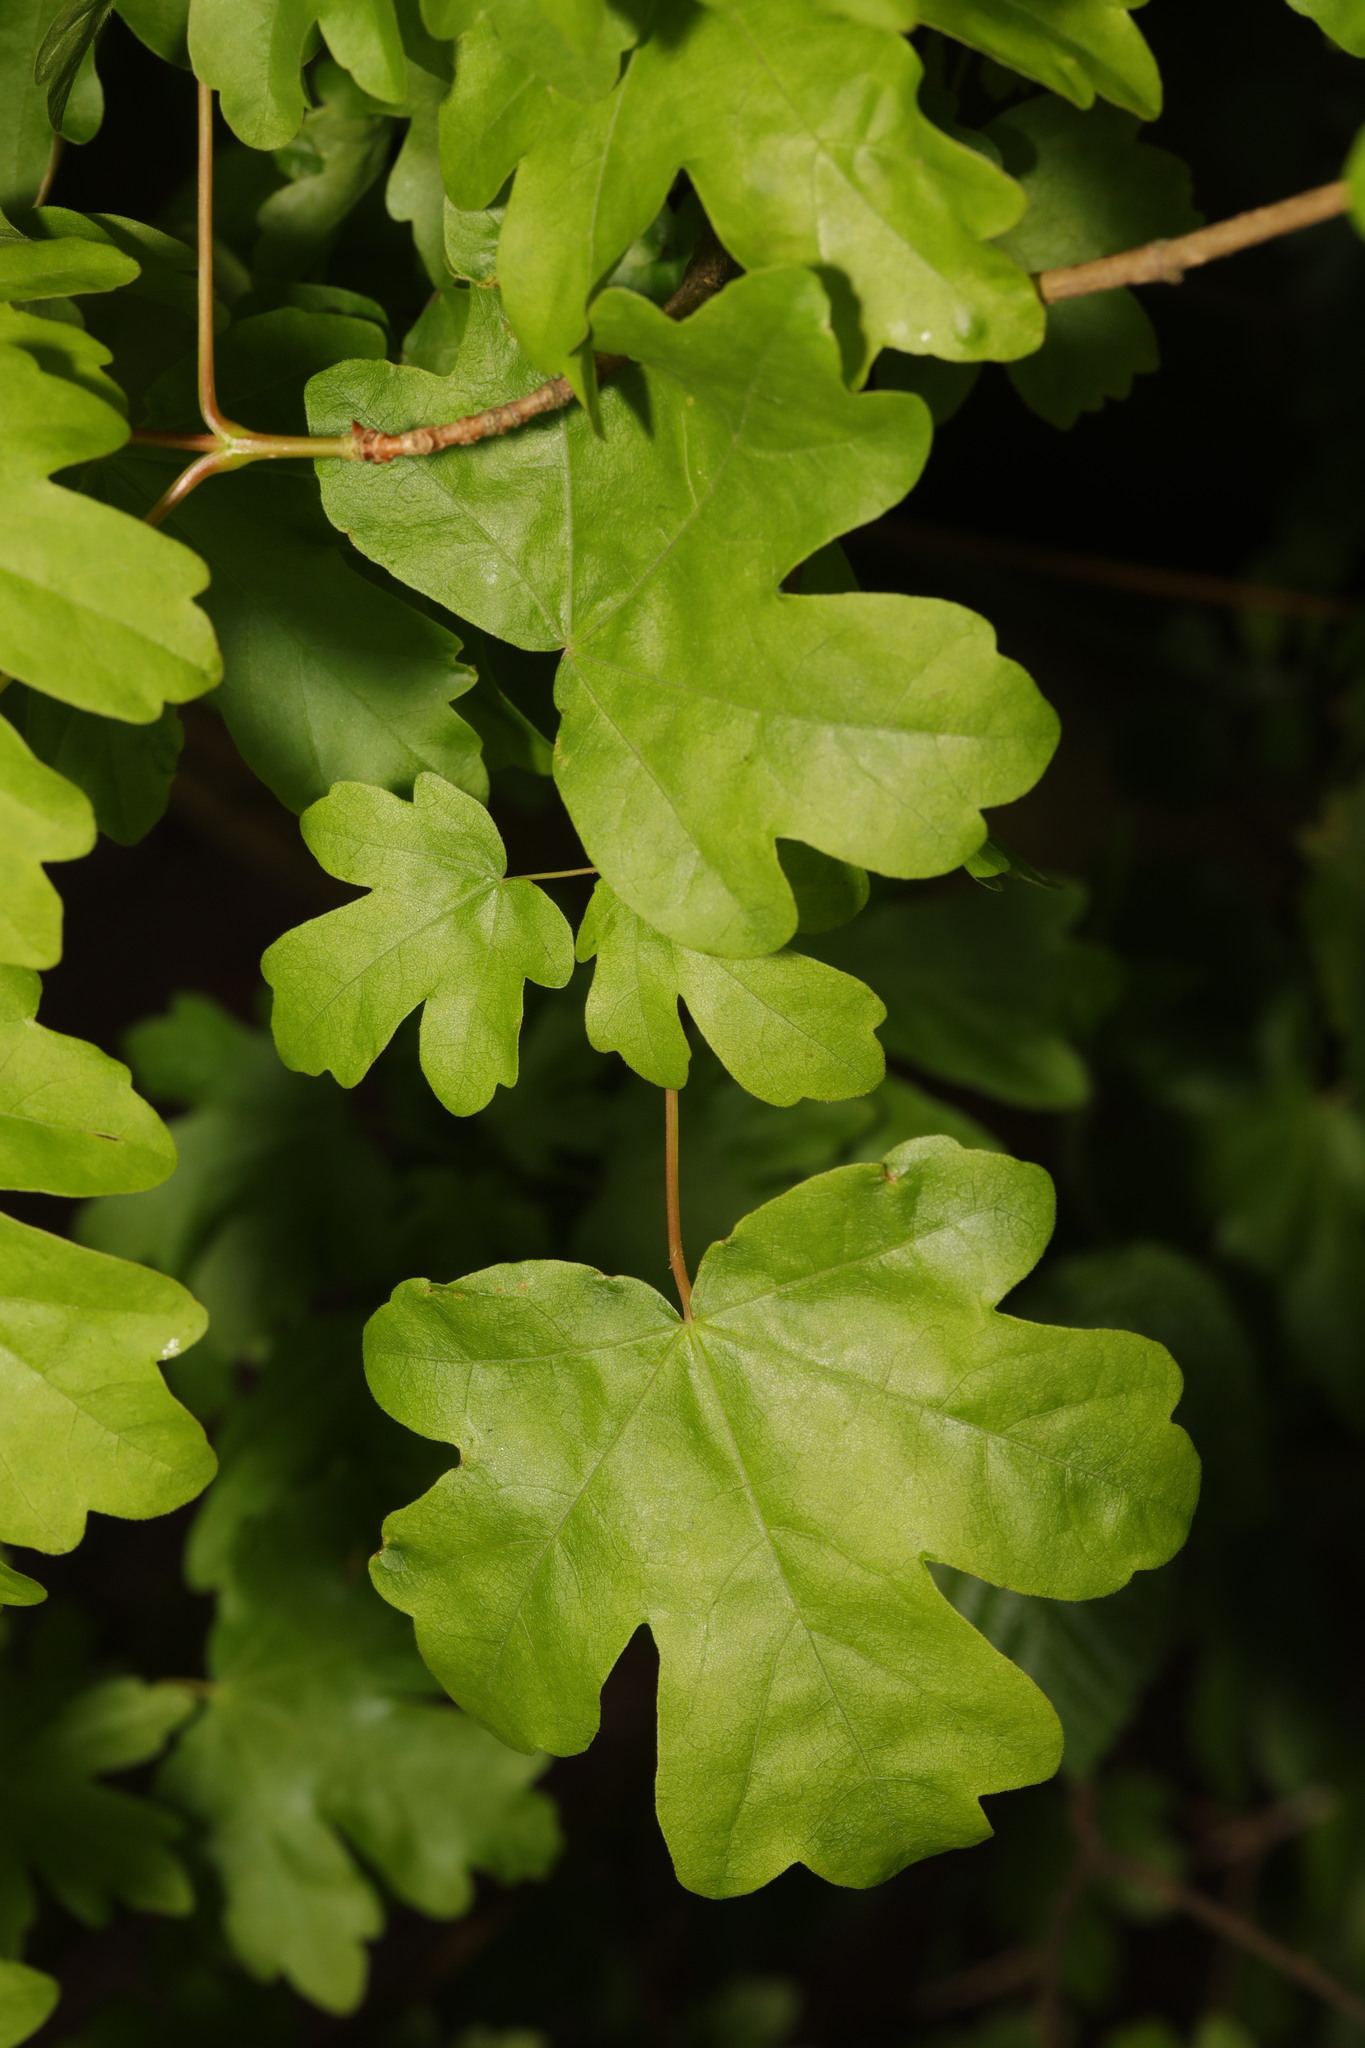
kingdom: Plantae
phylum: Tracheophyta
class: Magnoliopsida
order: Sapindales
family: Sapindaceae
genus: Acer
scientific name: Acer campestre
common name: Field maple
